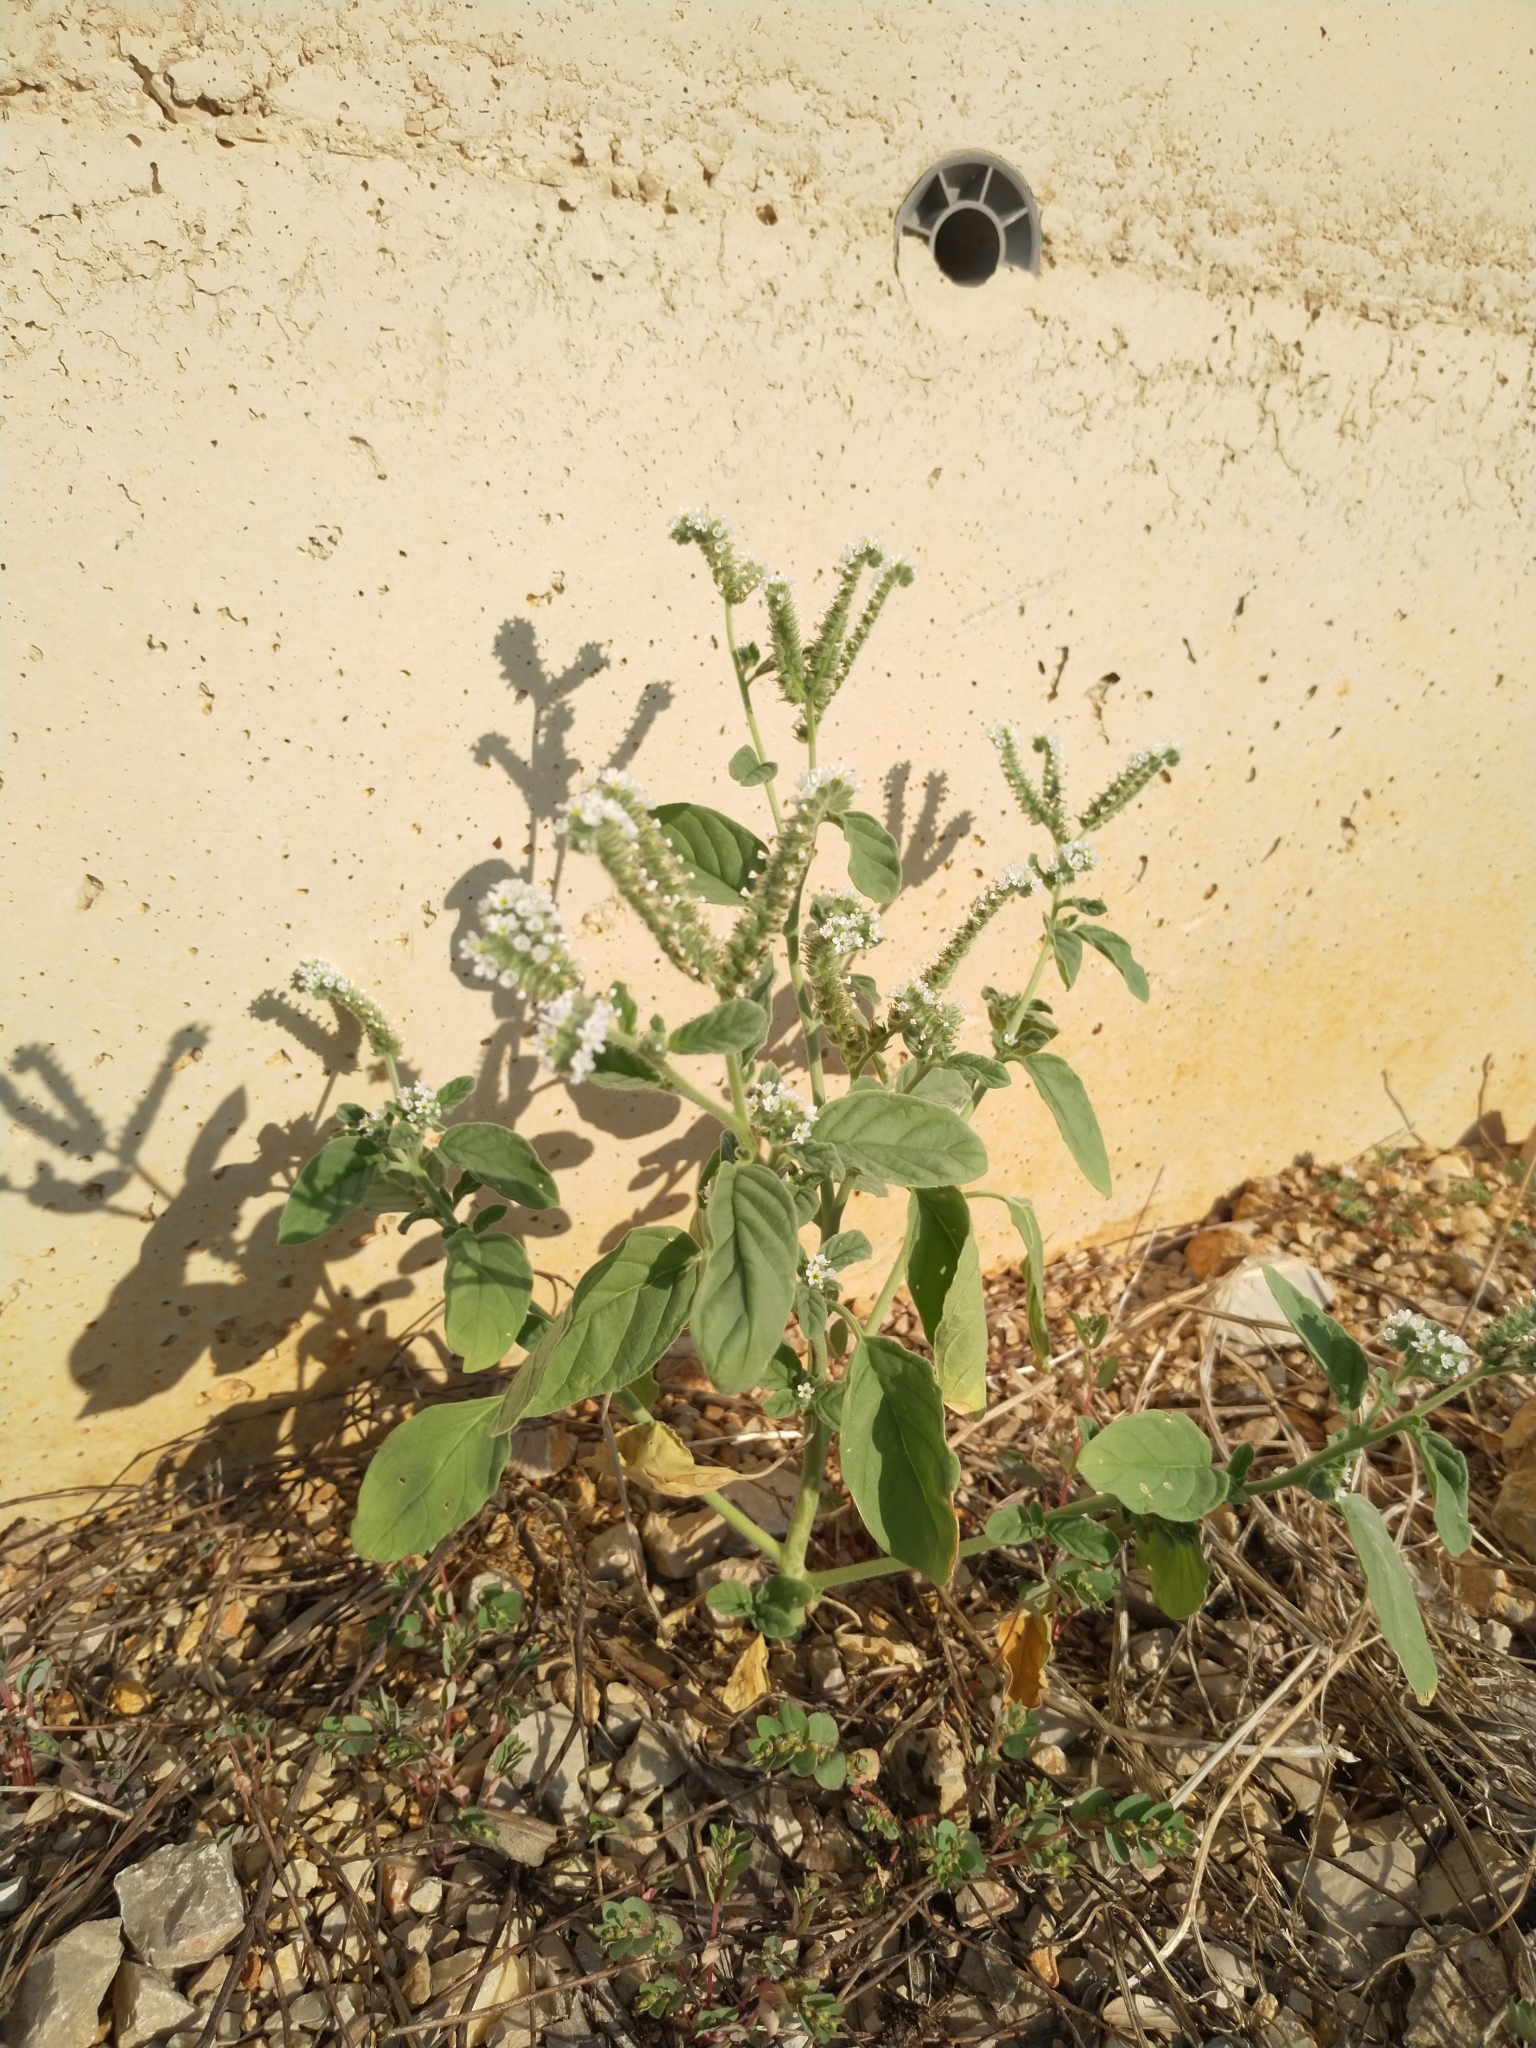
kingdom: Plantae
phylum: Tracheophyta
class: Magnoliopsida
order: Boraginales
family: Heliotropiaceae
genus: Heliotropium
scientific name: Heliotropium europaeum
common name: European heliotrope
